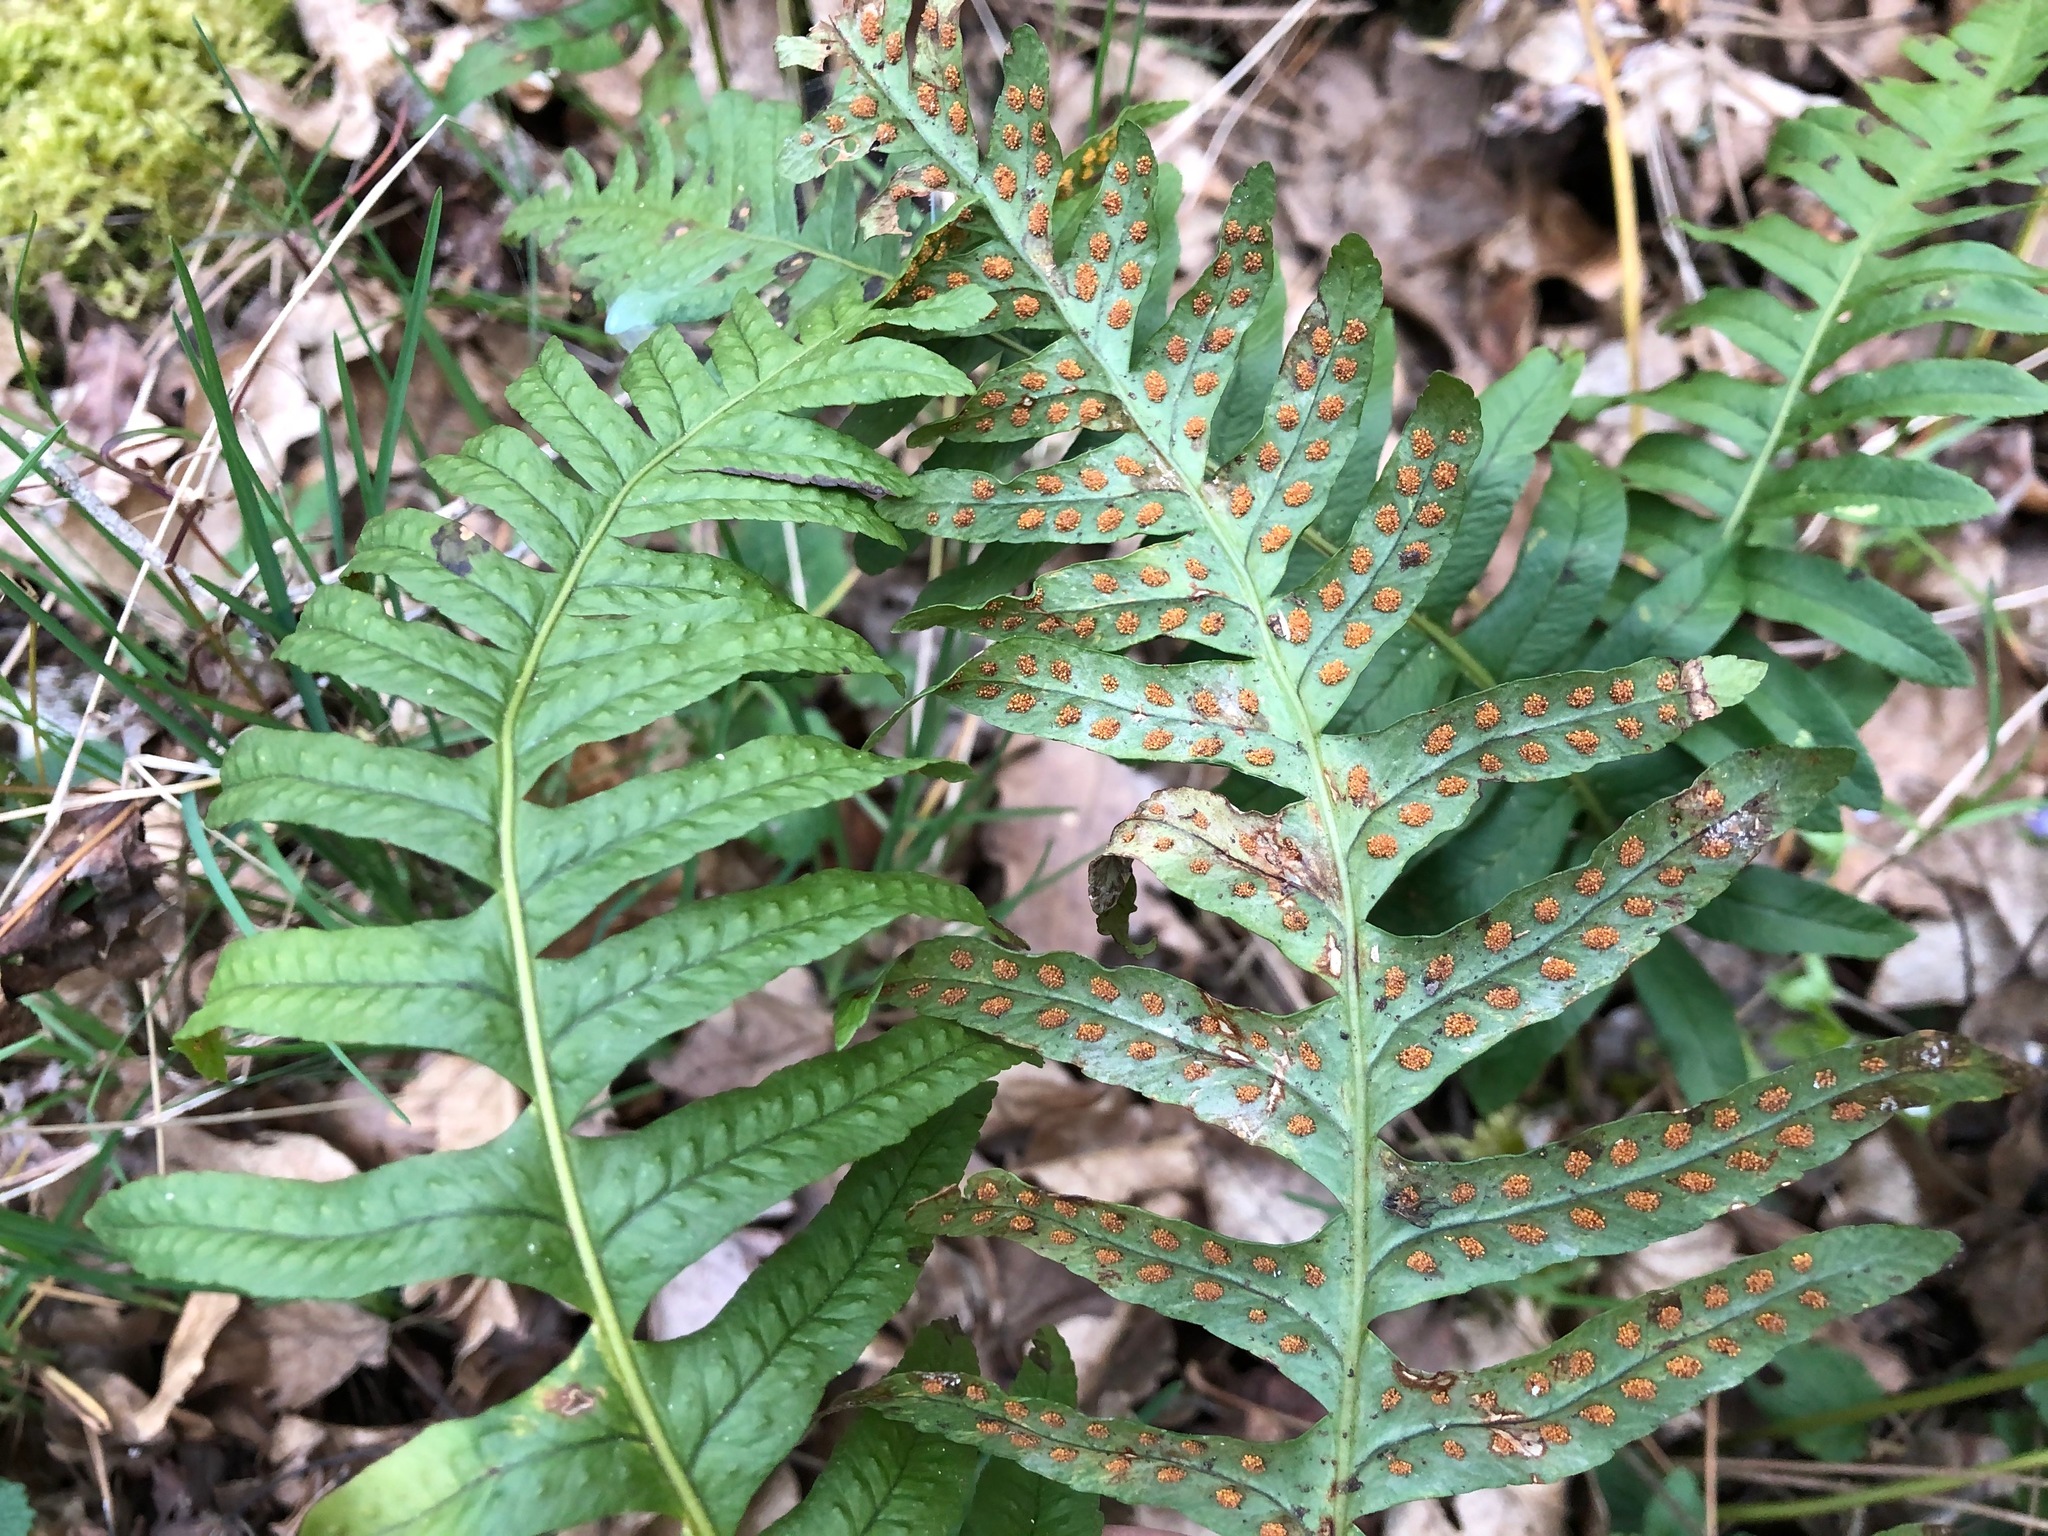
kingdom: Plantae
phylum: Tracheophyta
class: Polypodiopsida
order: Polypodiales
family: Polypodiaceae
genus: Polypodium
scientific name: Polypodium interjectum
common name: Intermediate polypody
